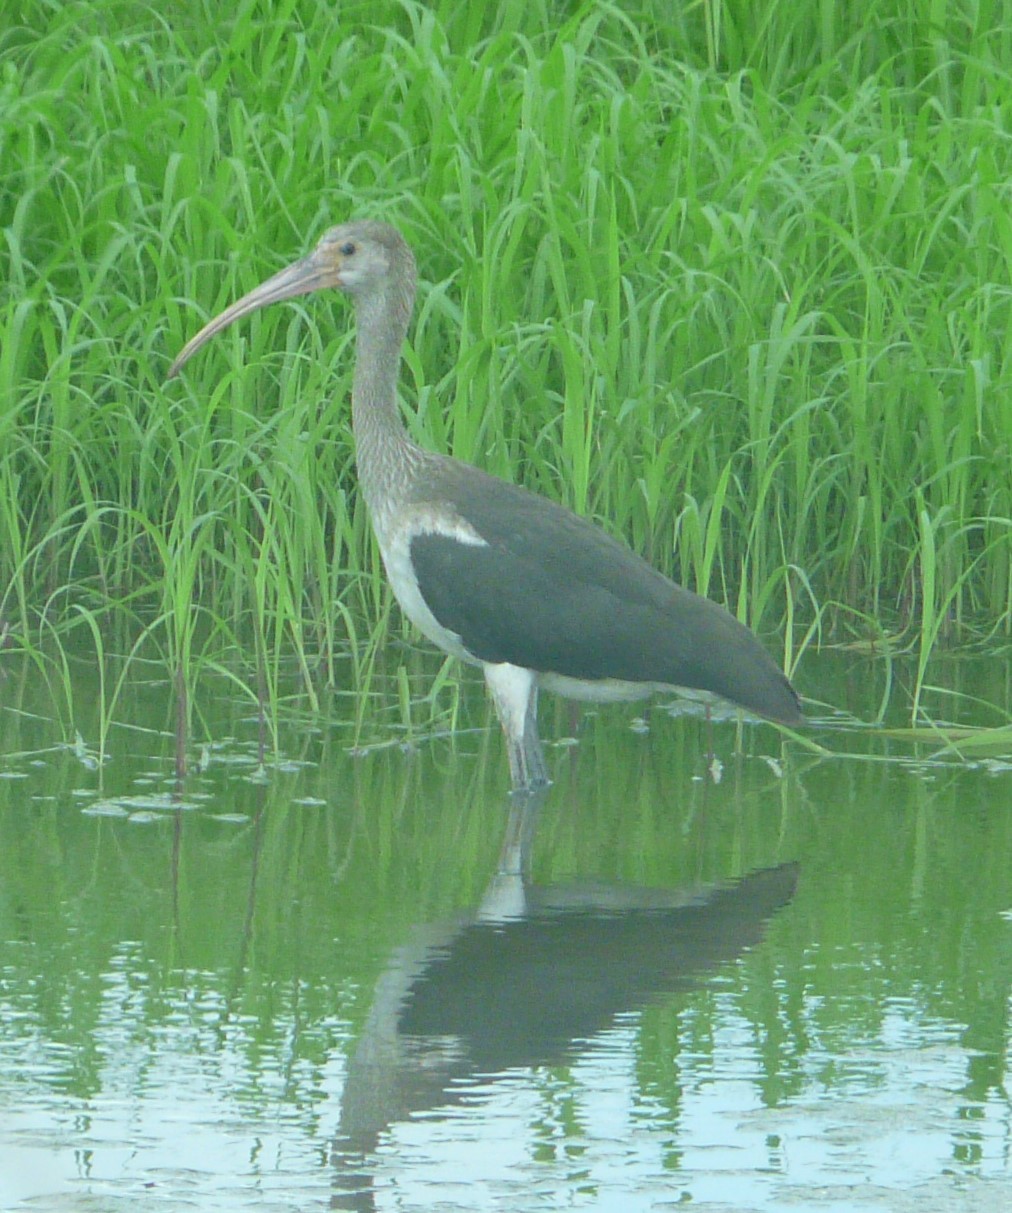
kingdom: Animalia
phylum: Chordata
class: Aves
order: Pelecaniformes
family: Threskiornithidae
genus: Eudocimus
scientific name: Eudocimus albus
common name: White ibis
